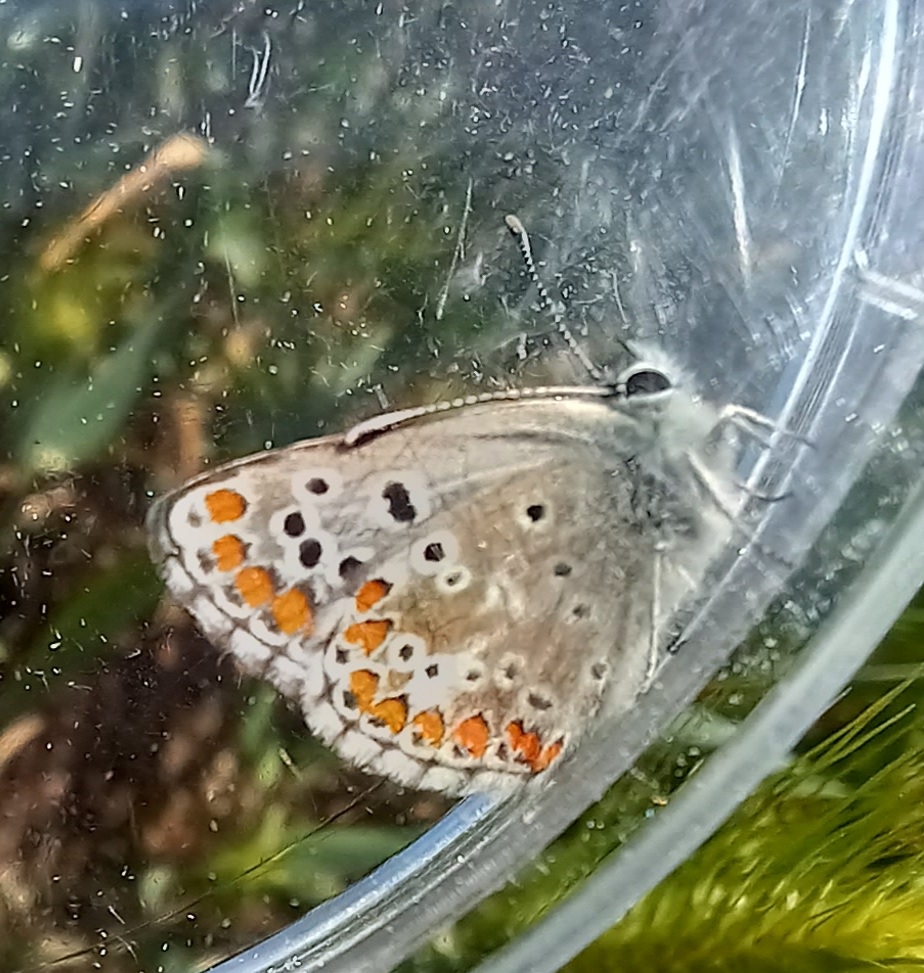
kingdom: Animalia
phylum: Arthropoda
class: Insecta
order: Lepidoptera
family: Lycaenidae
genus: Aricia
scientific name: Aricia cramera
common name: Eschscholtz´s brown  argus
